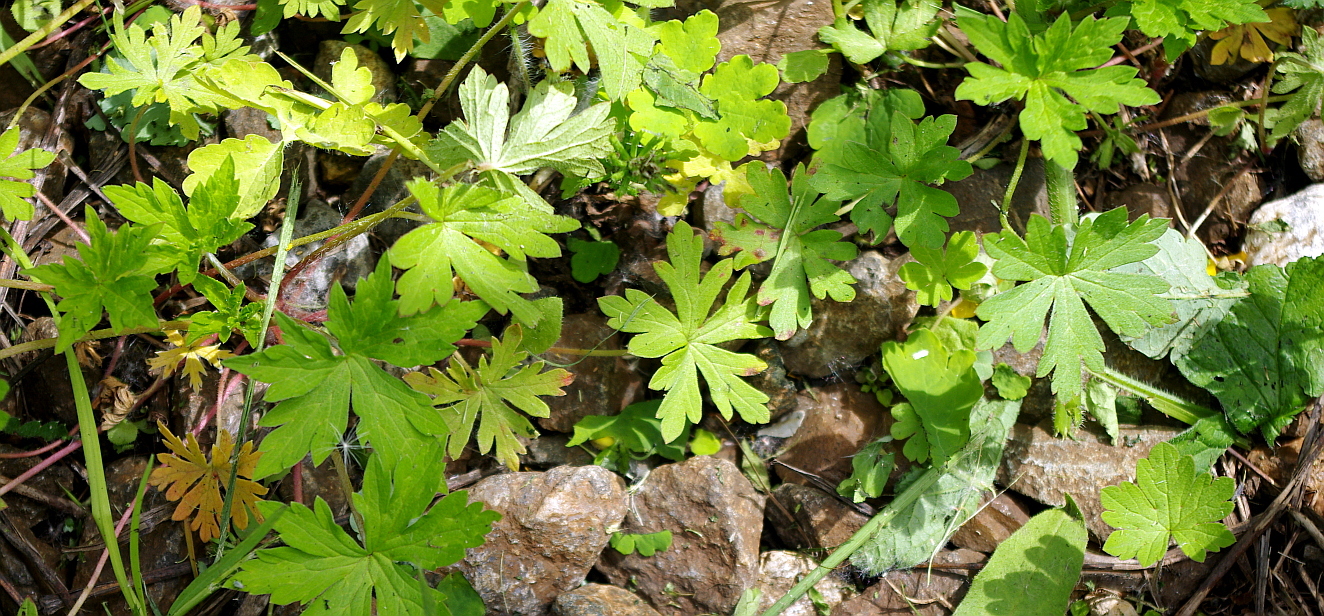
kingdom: Plantae
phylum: Tracheophyta
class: Magnoliopsida
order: Geraniales
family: Geraniaceae
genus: Geranium
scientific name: Geranium sibiricum
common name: Siberian crane's-bill
